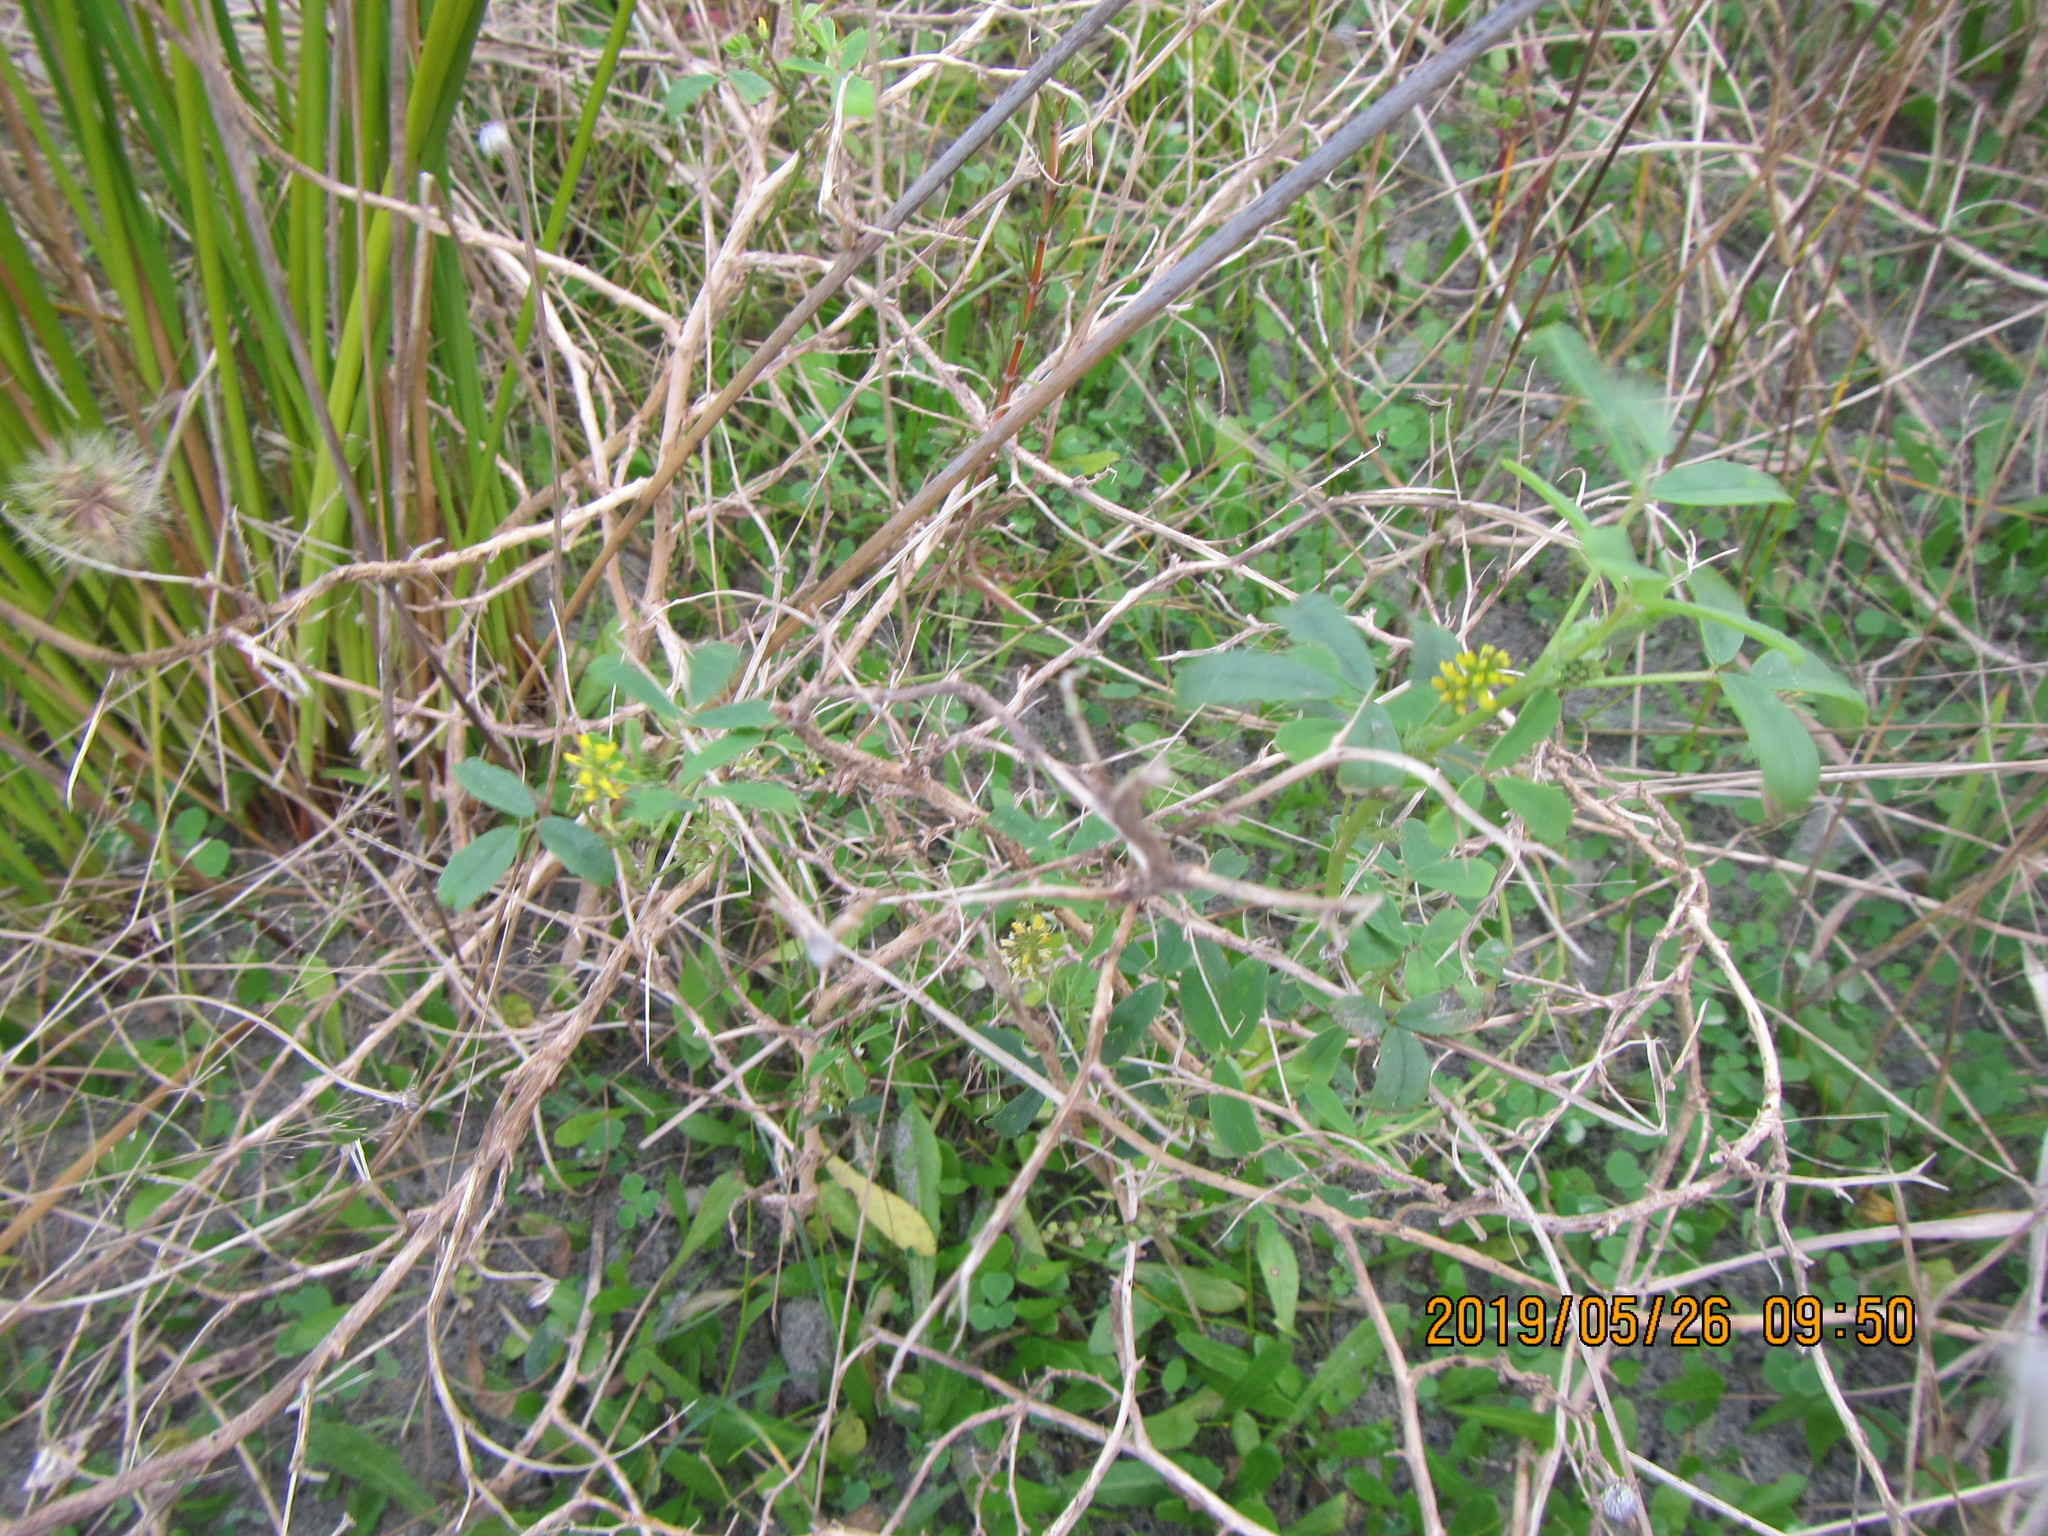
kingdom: Plantae
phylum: Tracheophyta
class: Magnoliopsida
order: Fabales
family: Fabaceae
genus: Melilotus
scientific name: Melilotus indicus
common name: Small melilot
